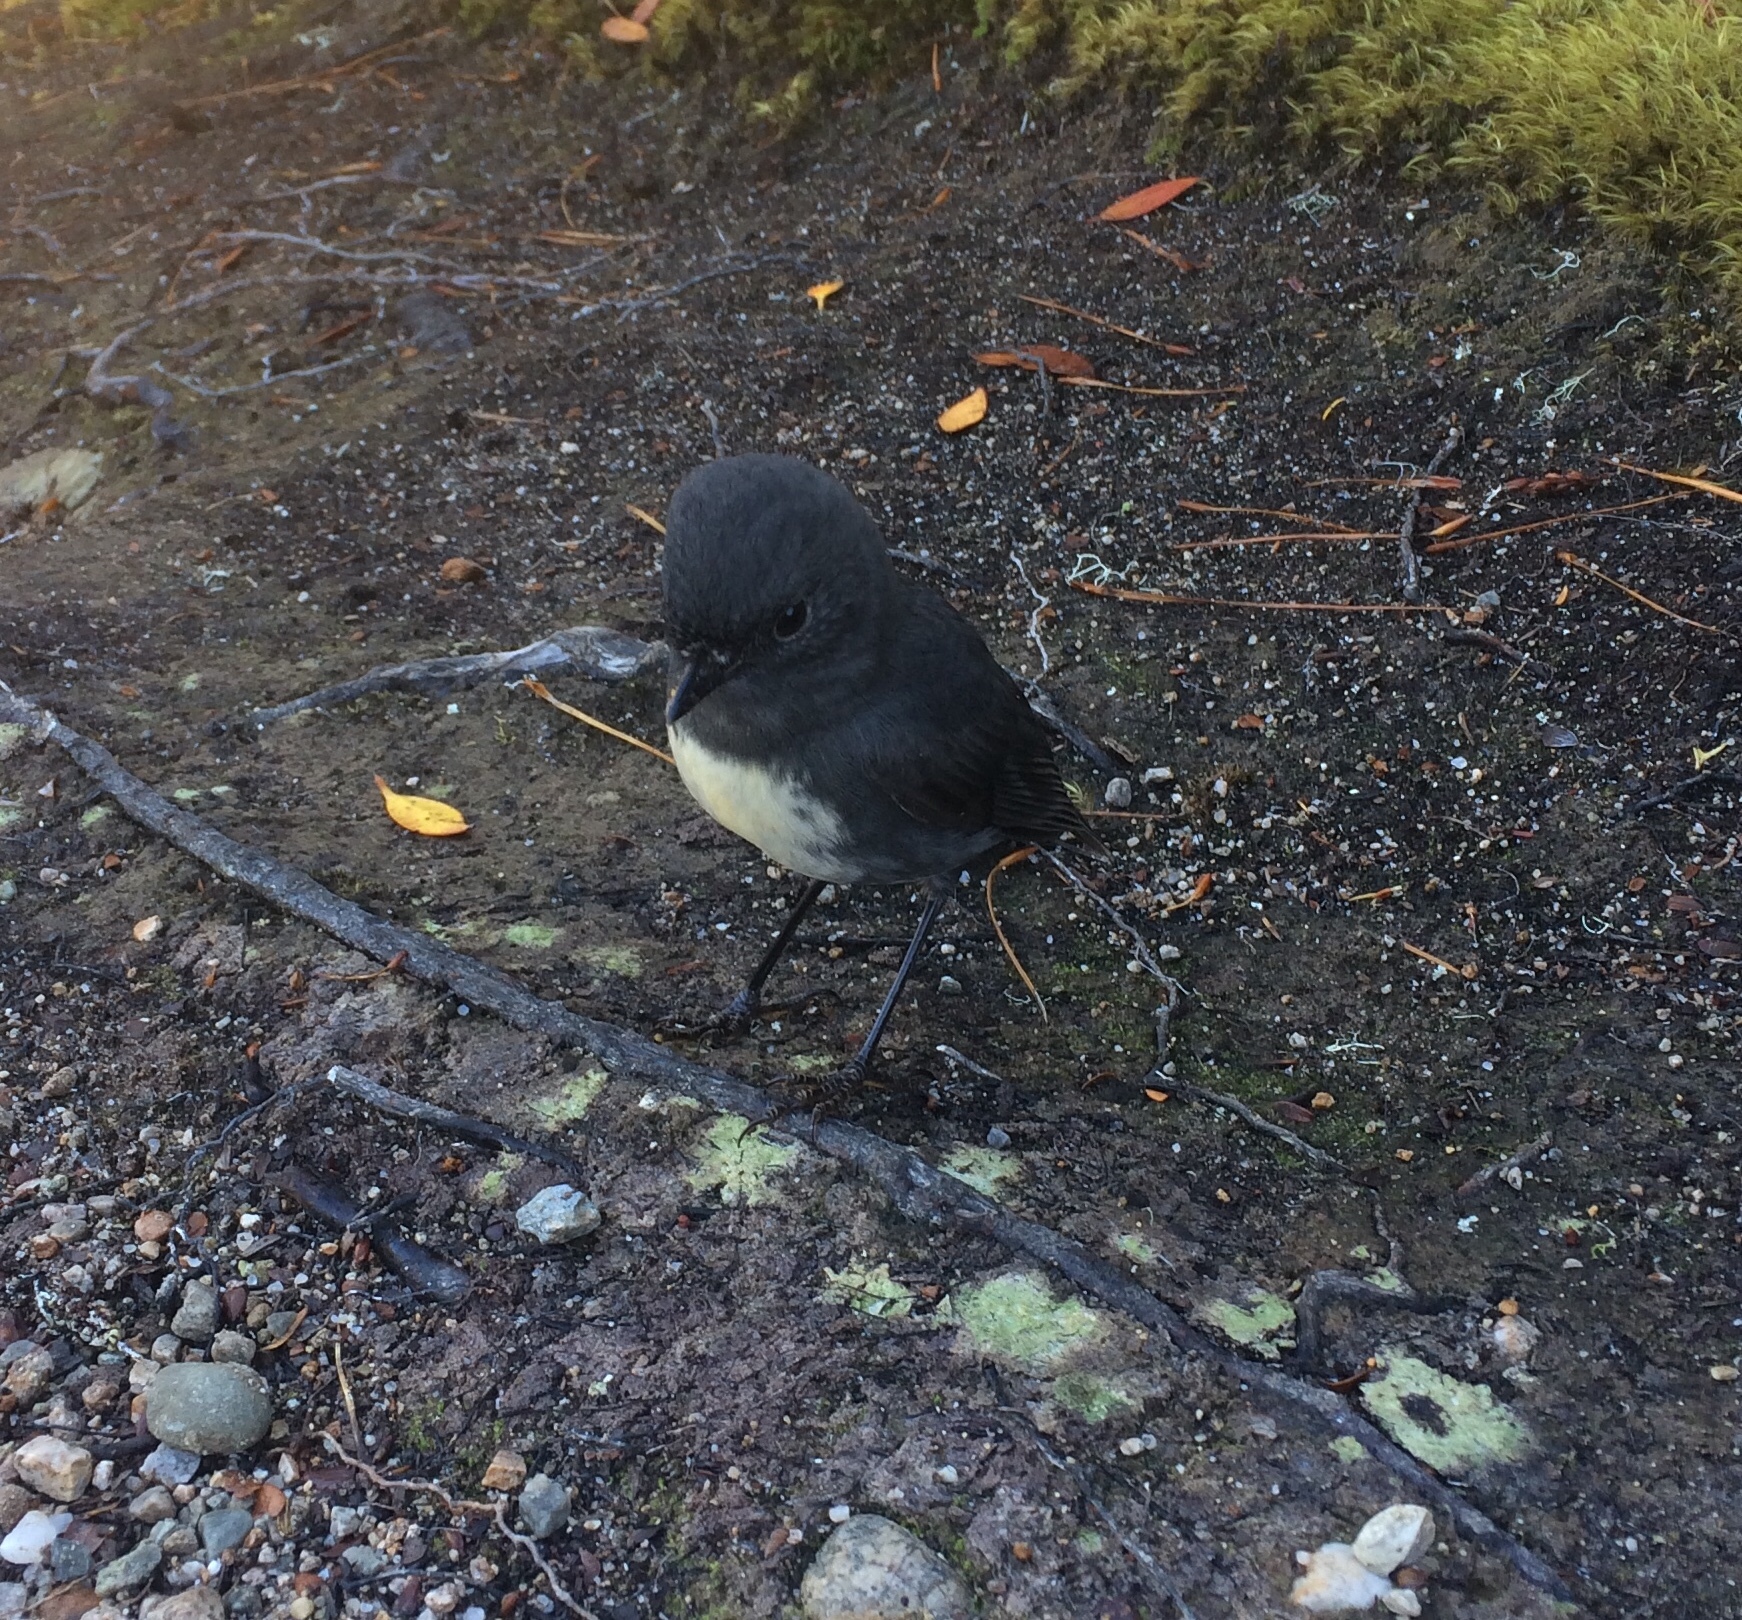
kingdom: Animalia
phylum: Chordata
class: Aves
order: Passeriformes
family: Petroicidae
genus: Petroica
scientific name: Petroica australis
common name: New zealand robin
